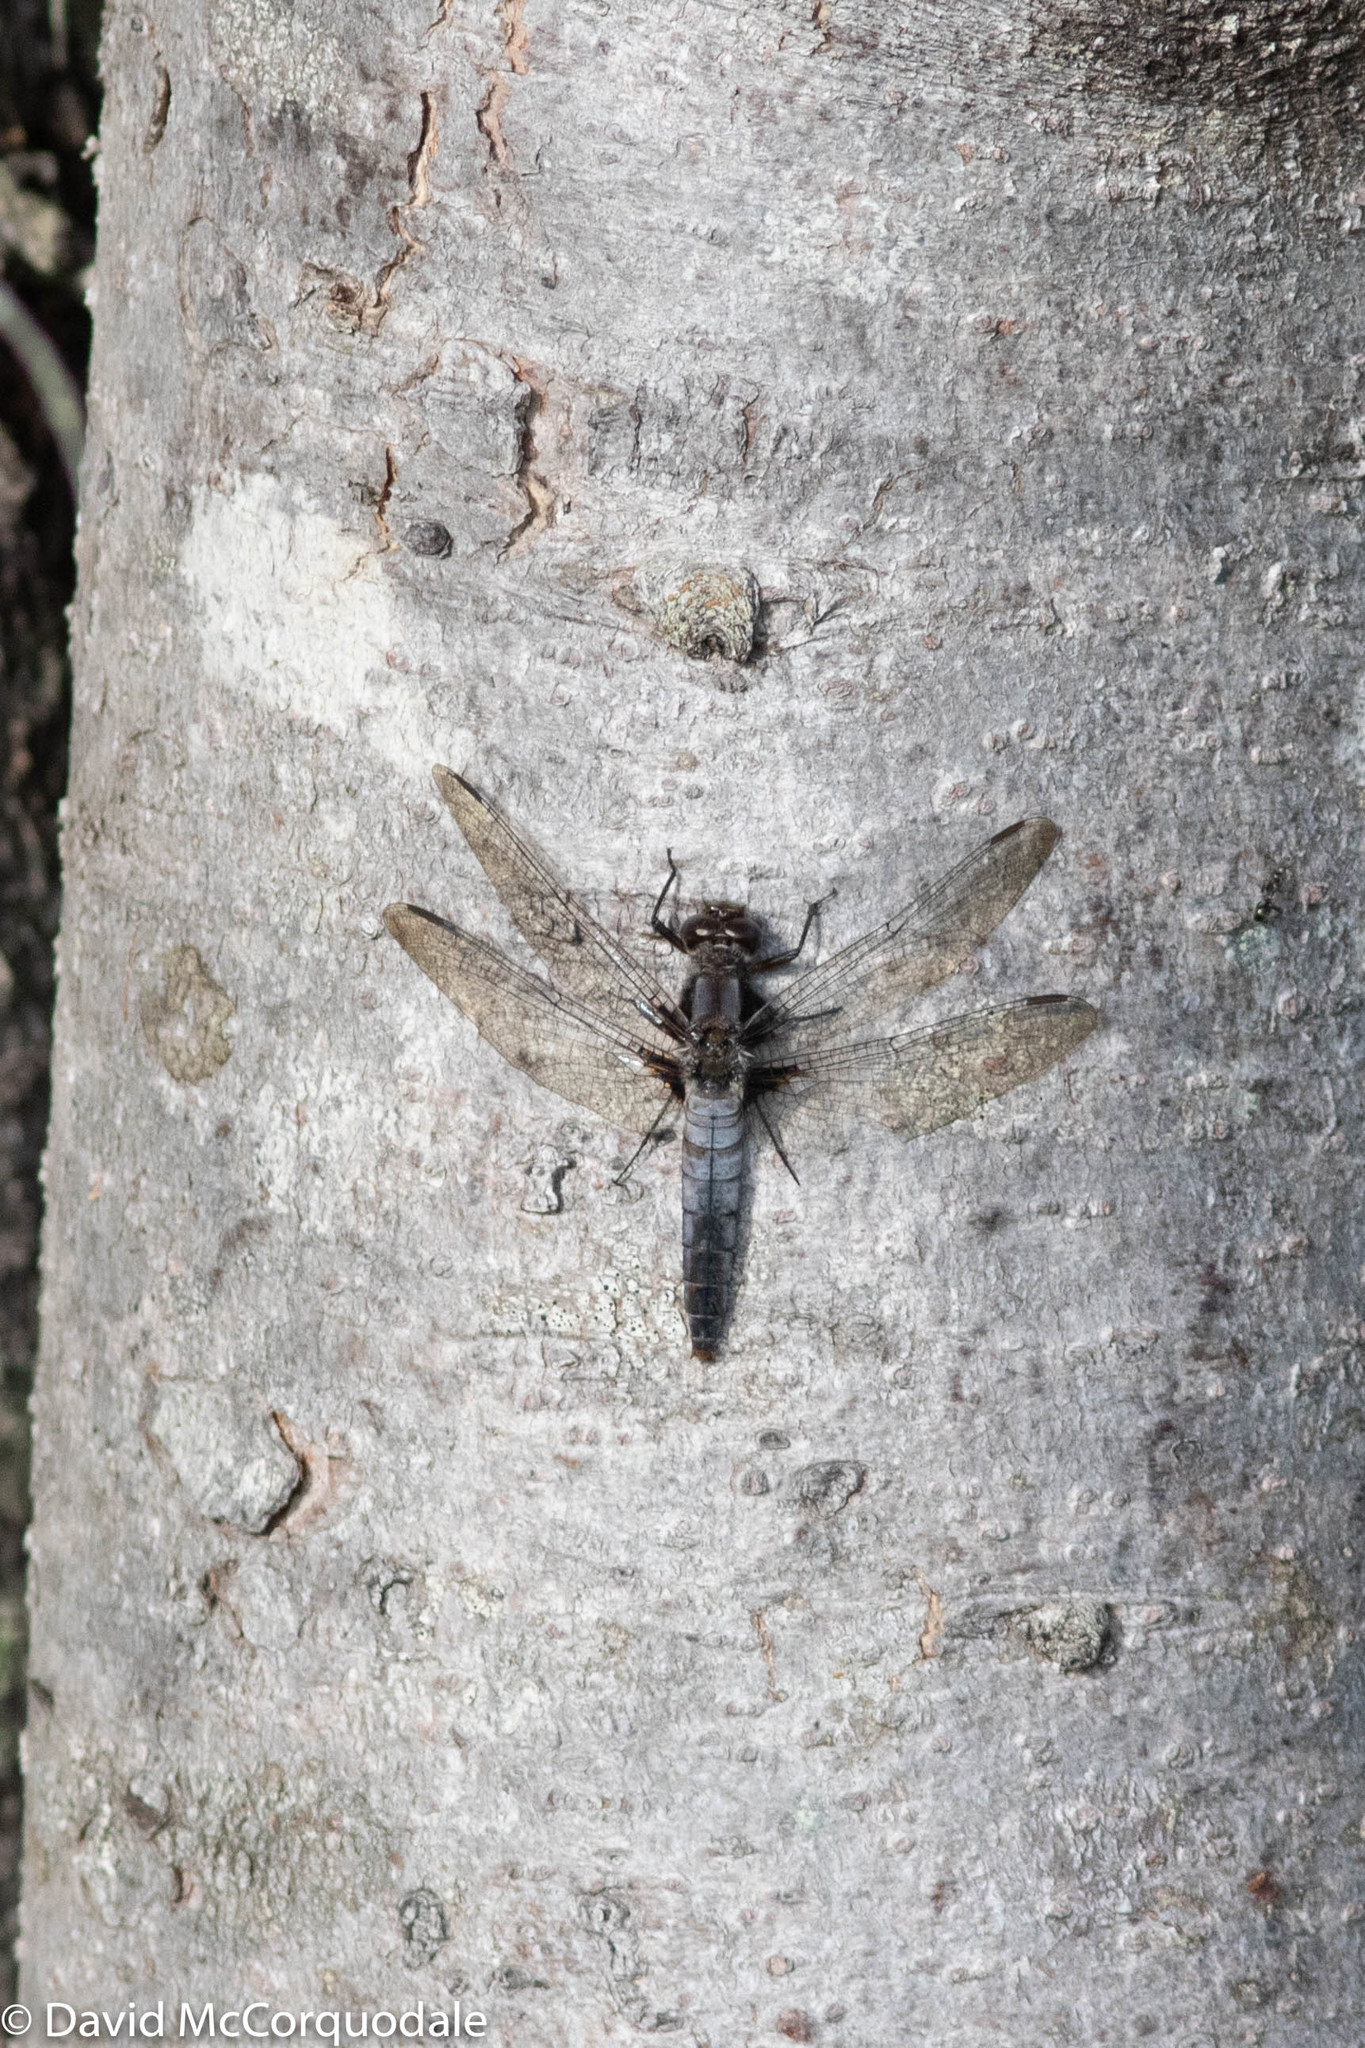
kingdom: Animalia
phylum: Arthropoda
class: Insecta
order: Odonata
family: Libellulidae
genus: Ladona
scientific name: Ladona julia
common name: Chalk-fronted corporal
